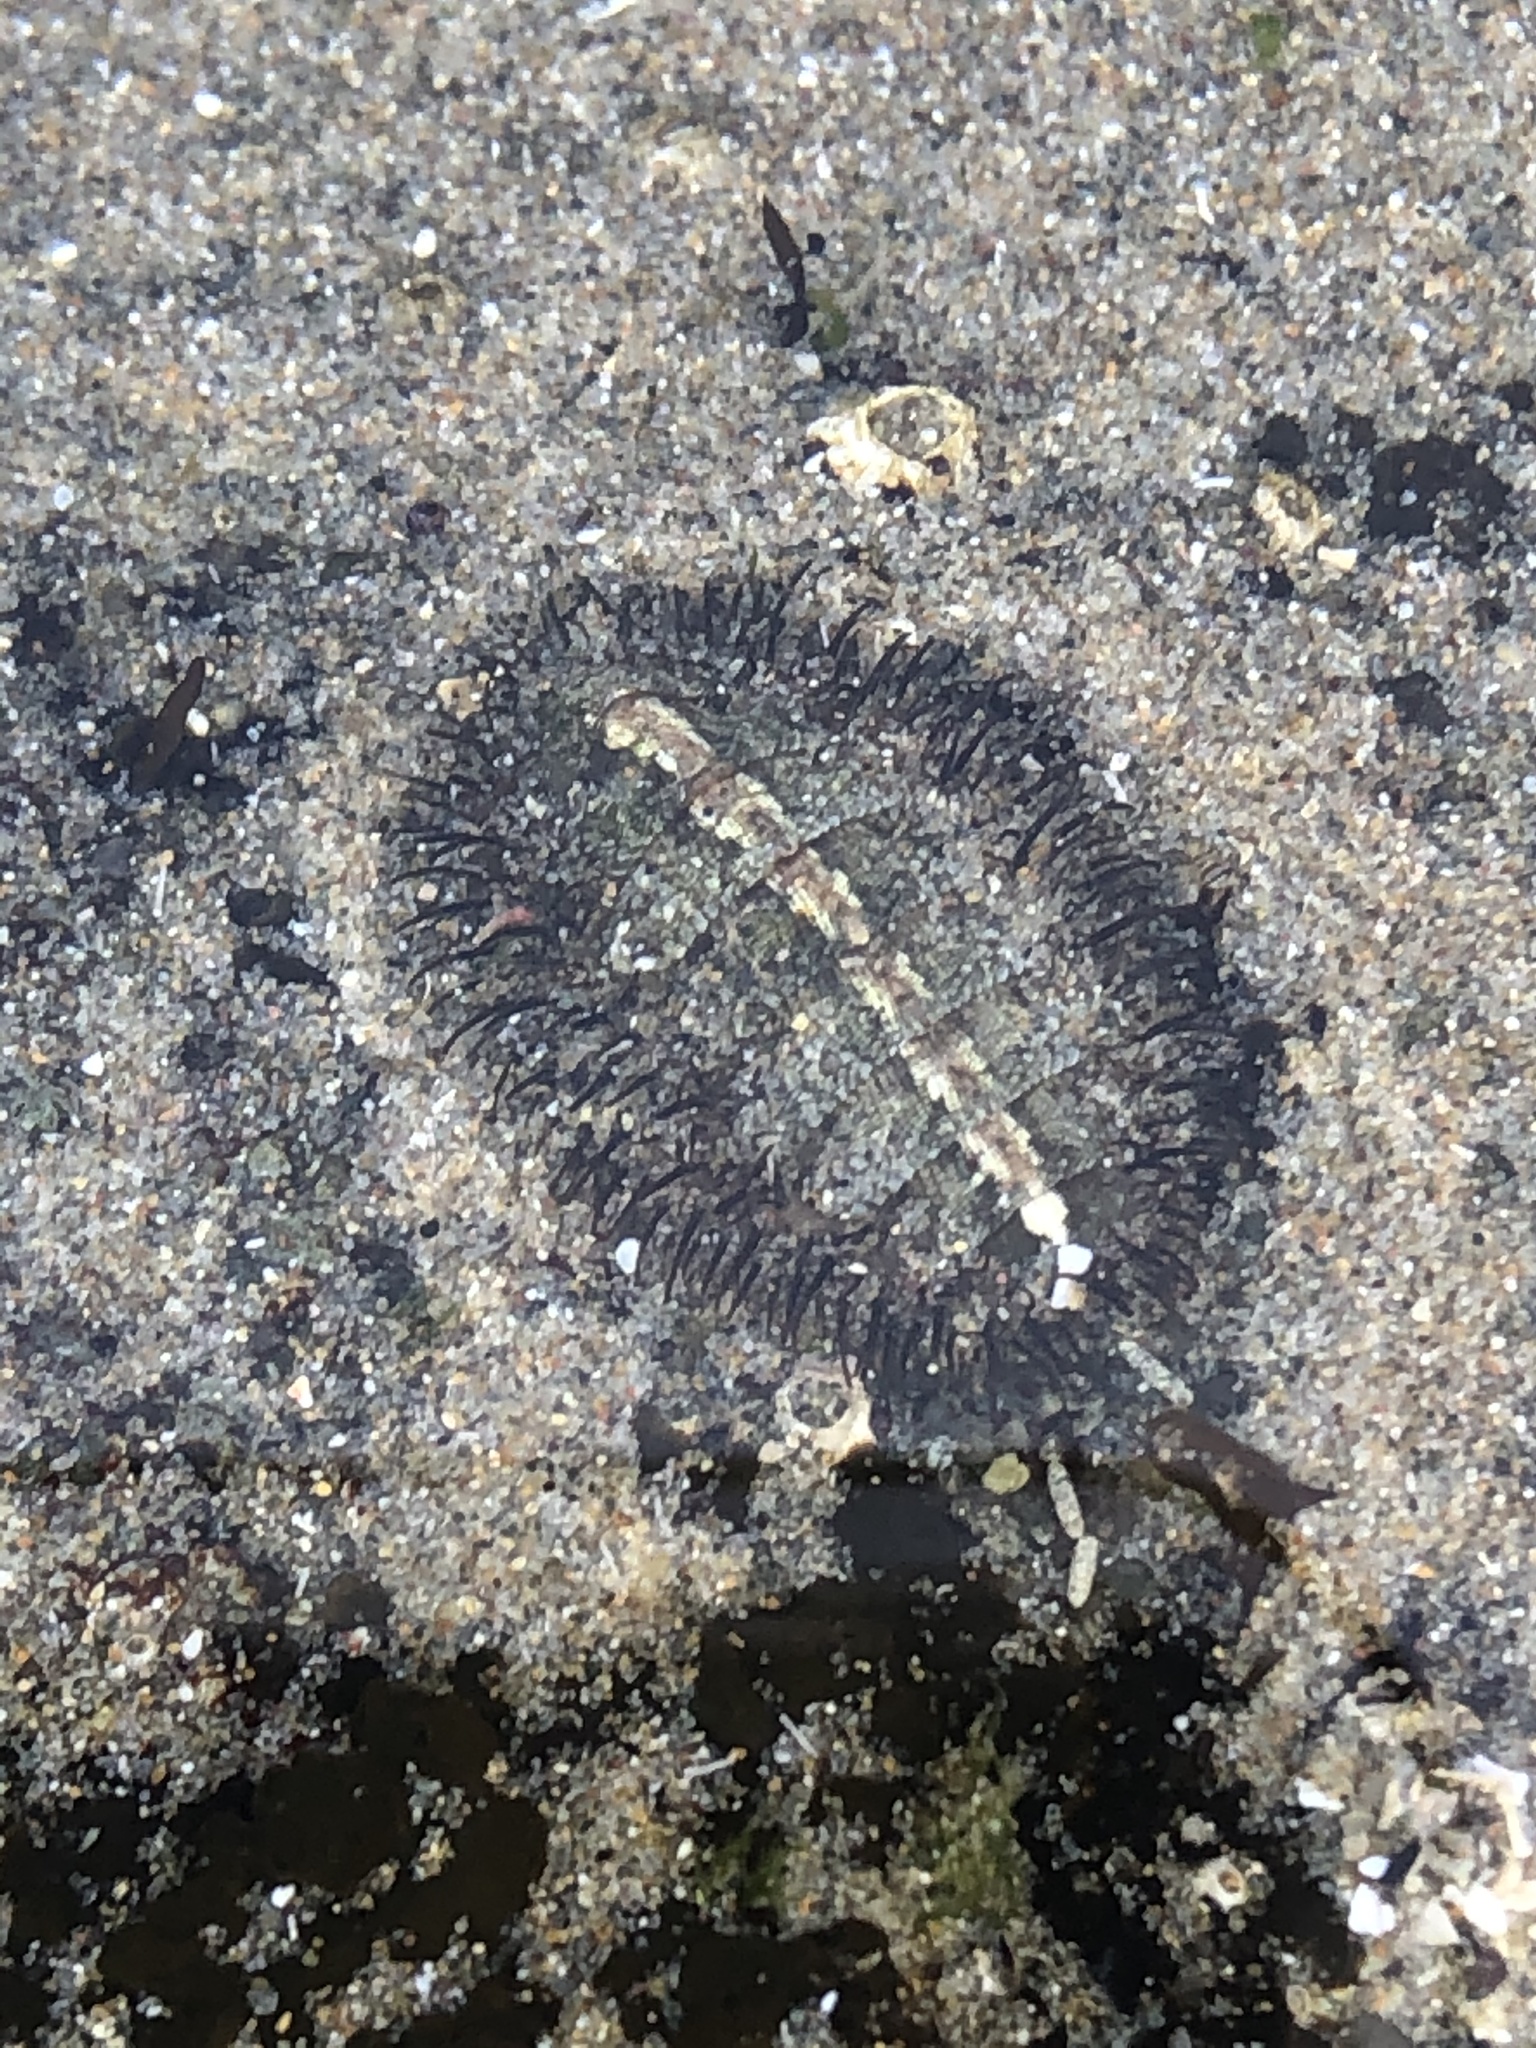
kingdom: Animalia
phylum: Mollusca
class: Polyplacophora
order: Chitonida
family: Mopaliidae
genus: Mopalia
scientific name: Mopalia muscosa
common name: Mossy chiton
